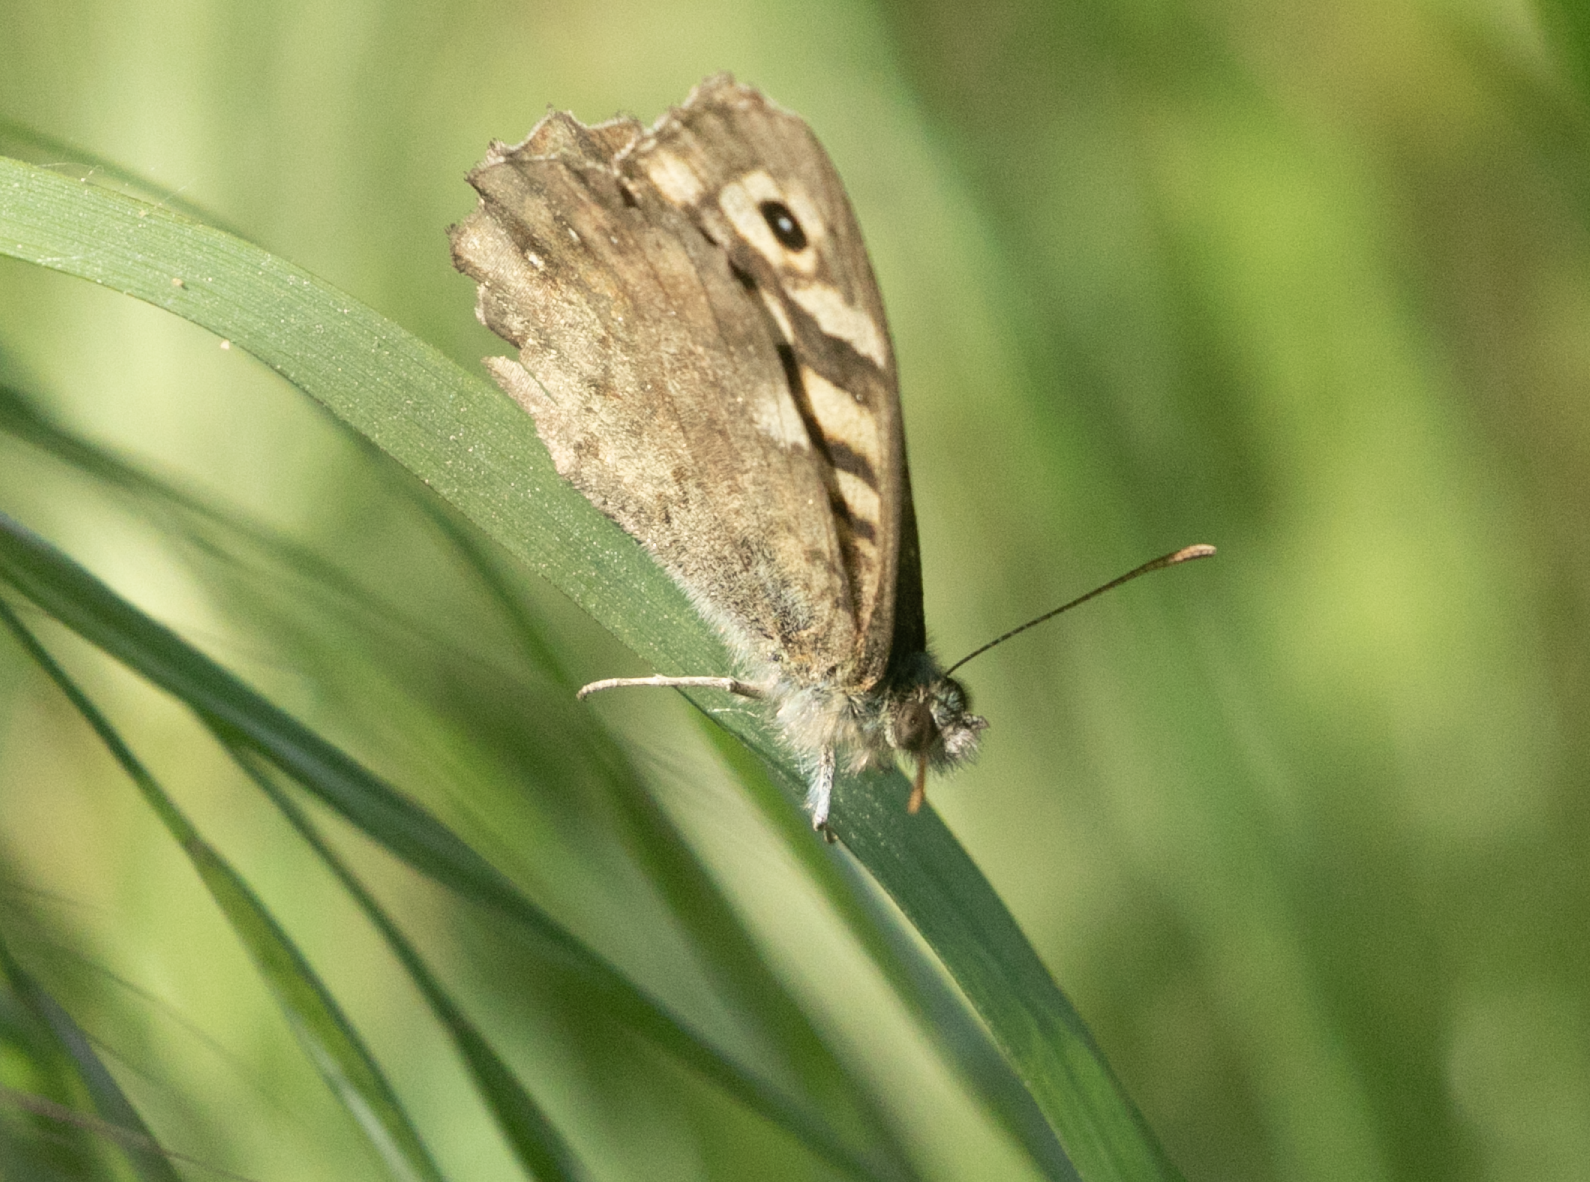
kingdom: Animalia
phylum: Arthropoda
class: Insecta
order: Lepidoptera
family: Nymphalidae
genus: Pararge
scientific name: Pararge aegeria
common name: Speckled wood
